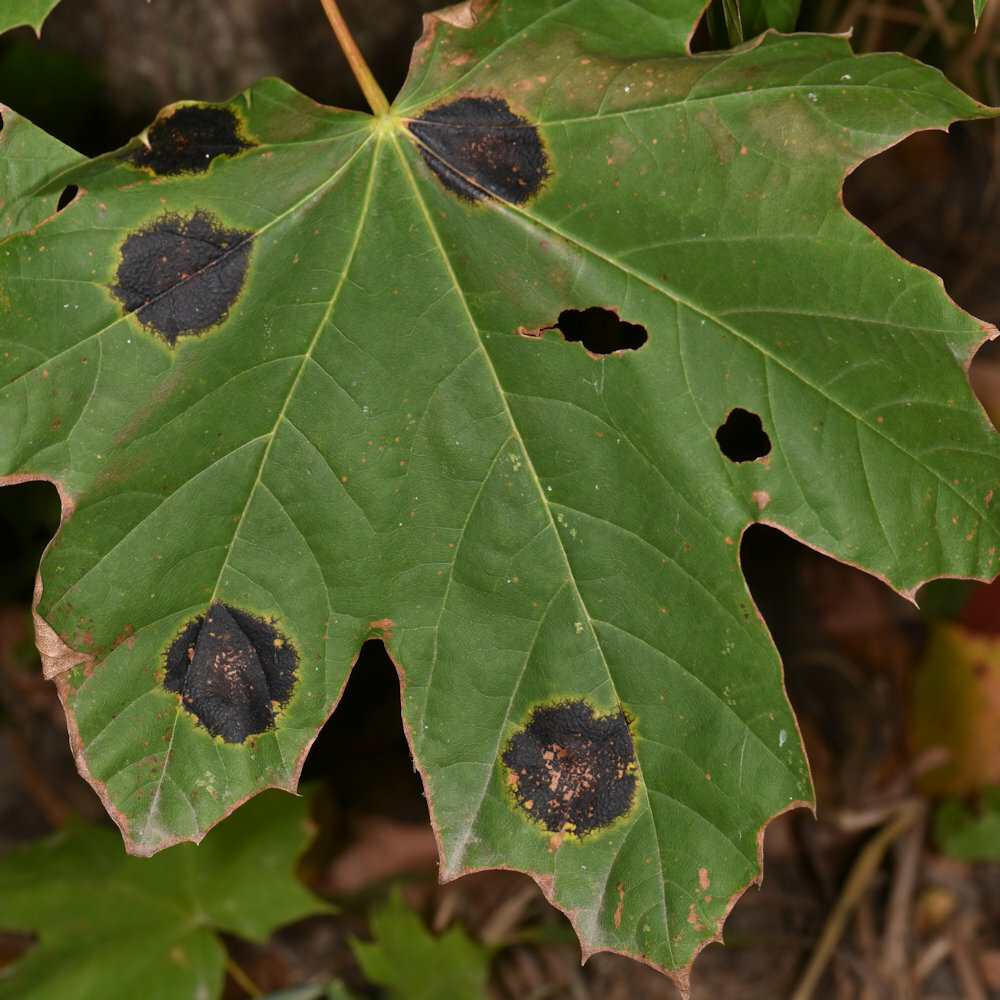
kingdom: Fungi
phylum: Ascomycota
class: Leotiomycetes
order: Rhytismatales
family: Rhytismataceae
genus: Rhytisma
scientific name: Rhytisma acerinum
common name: European tar spot
